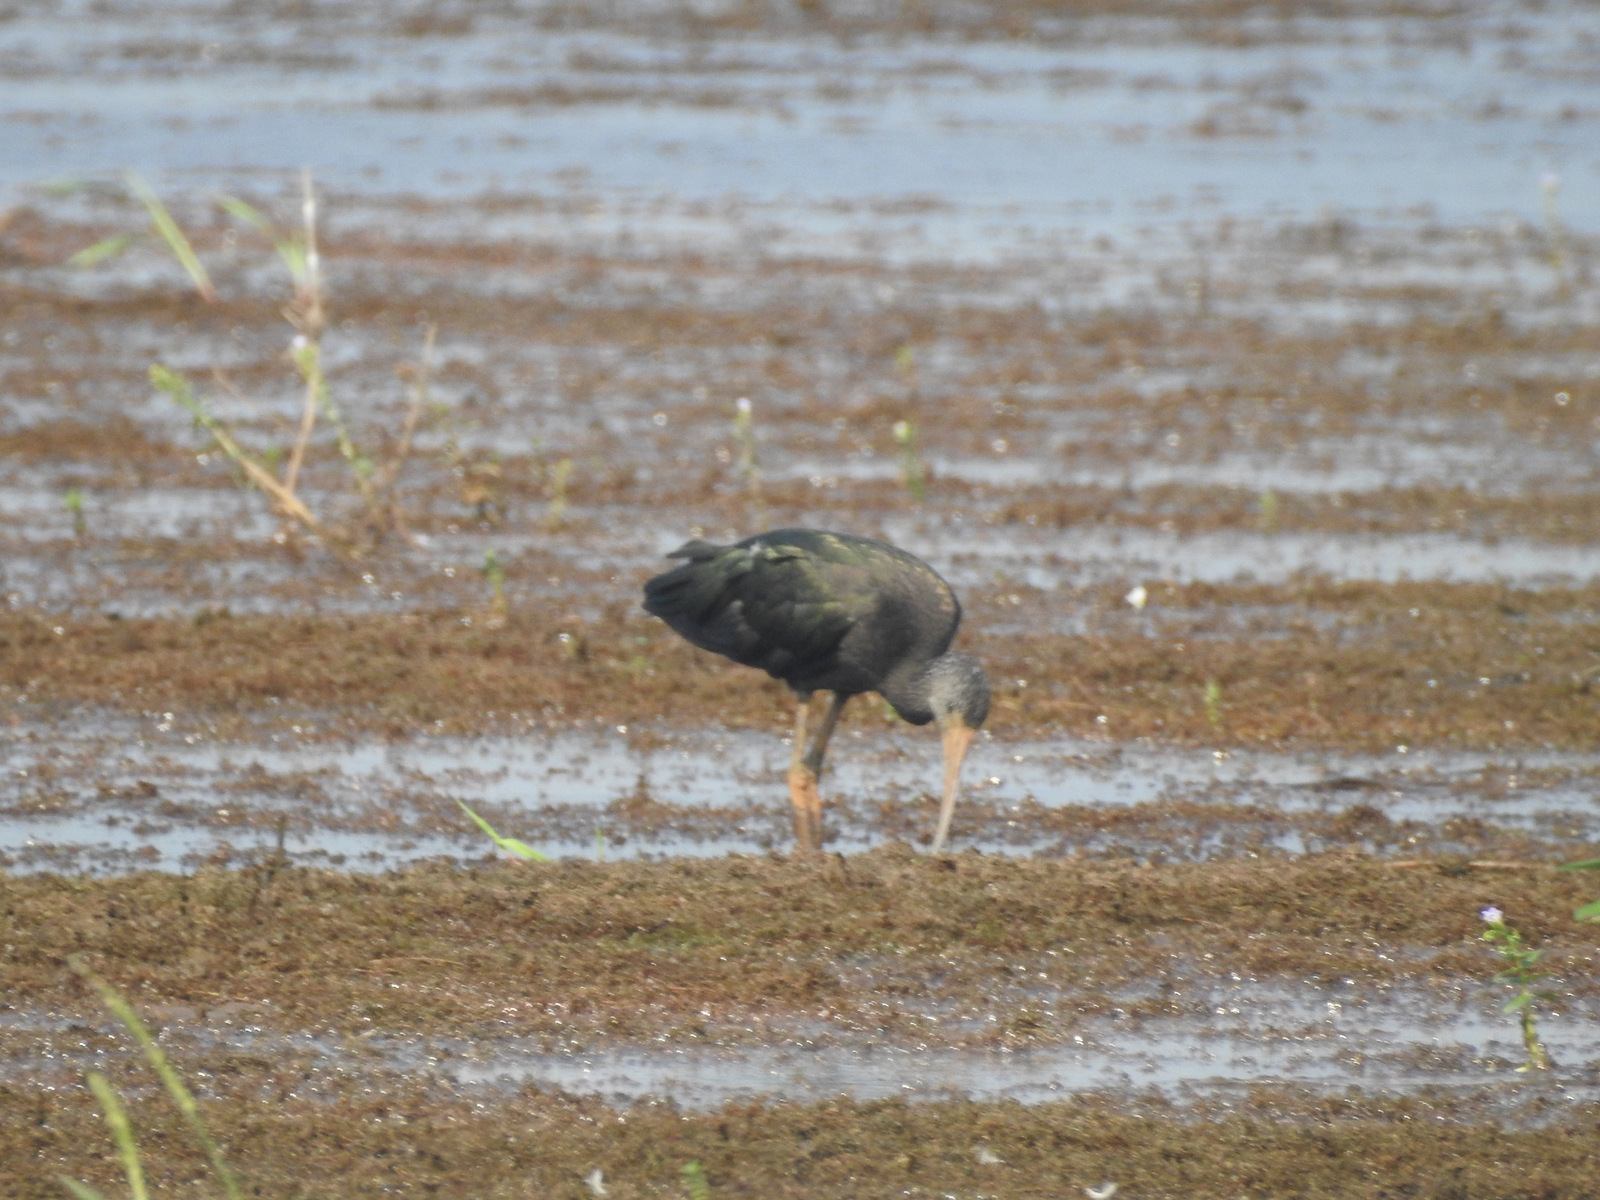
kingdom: Animalia
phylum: Chordata
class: Aves
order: Pelecaniformes
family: Threskiornithidae
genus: Plegadis
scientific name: Plegadis falcinellus
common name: Glossy ibis
